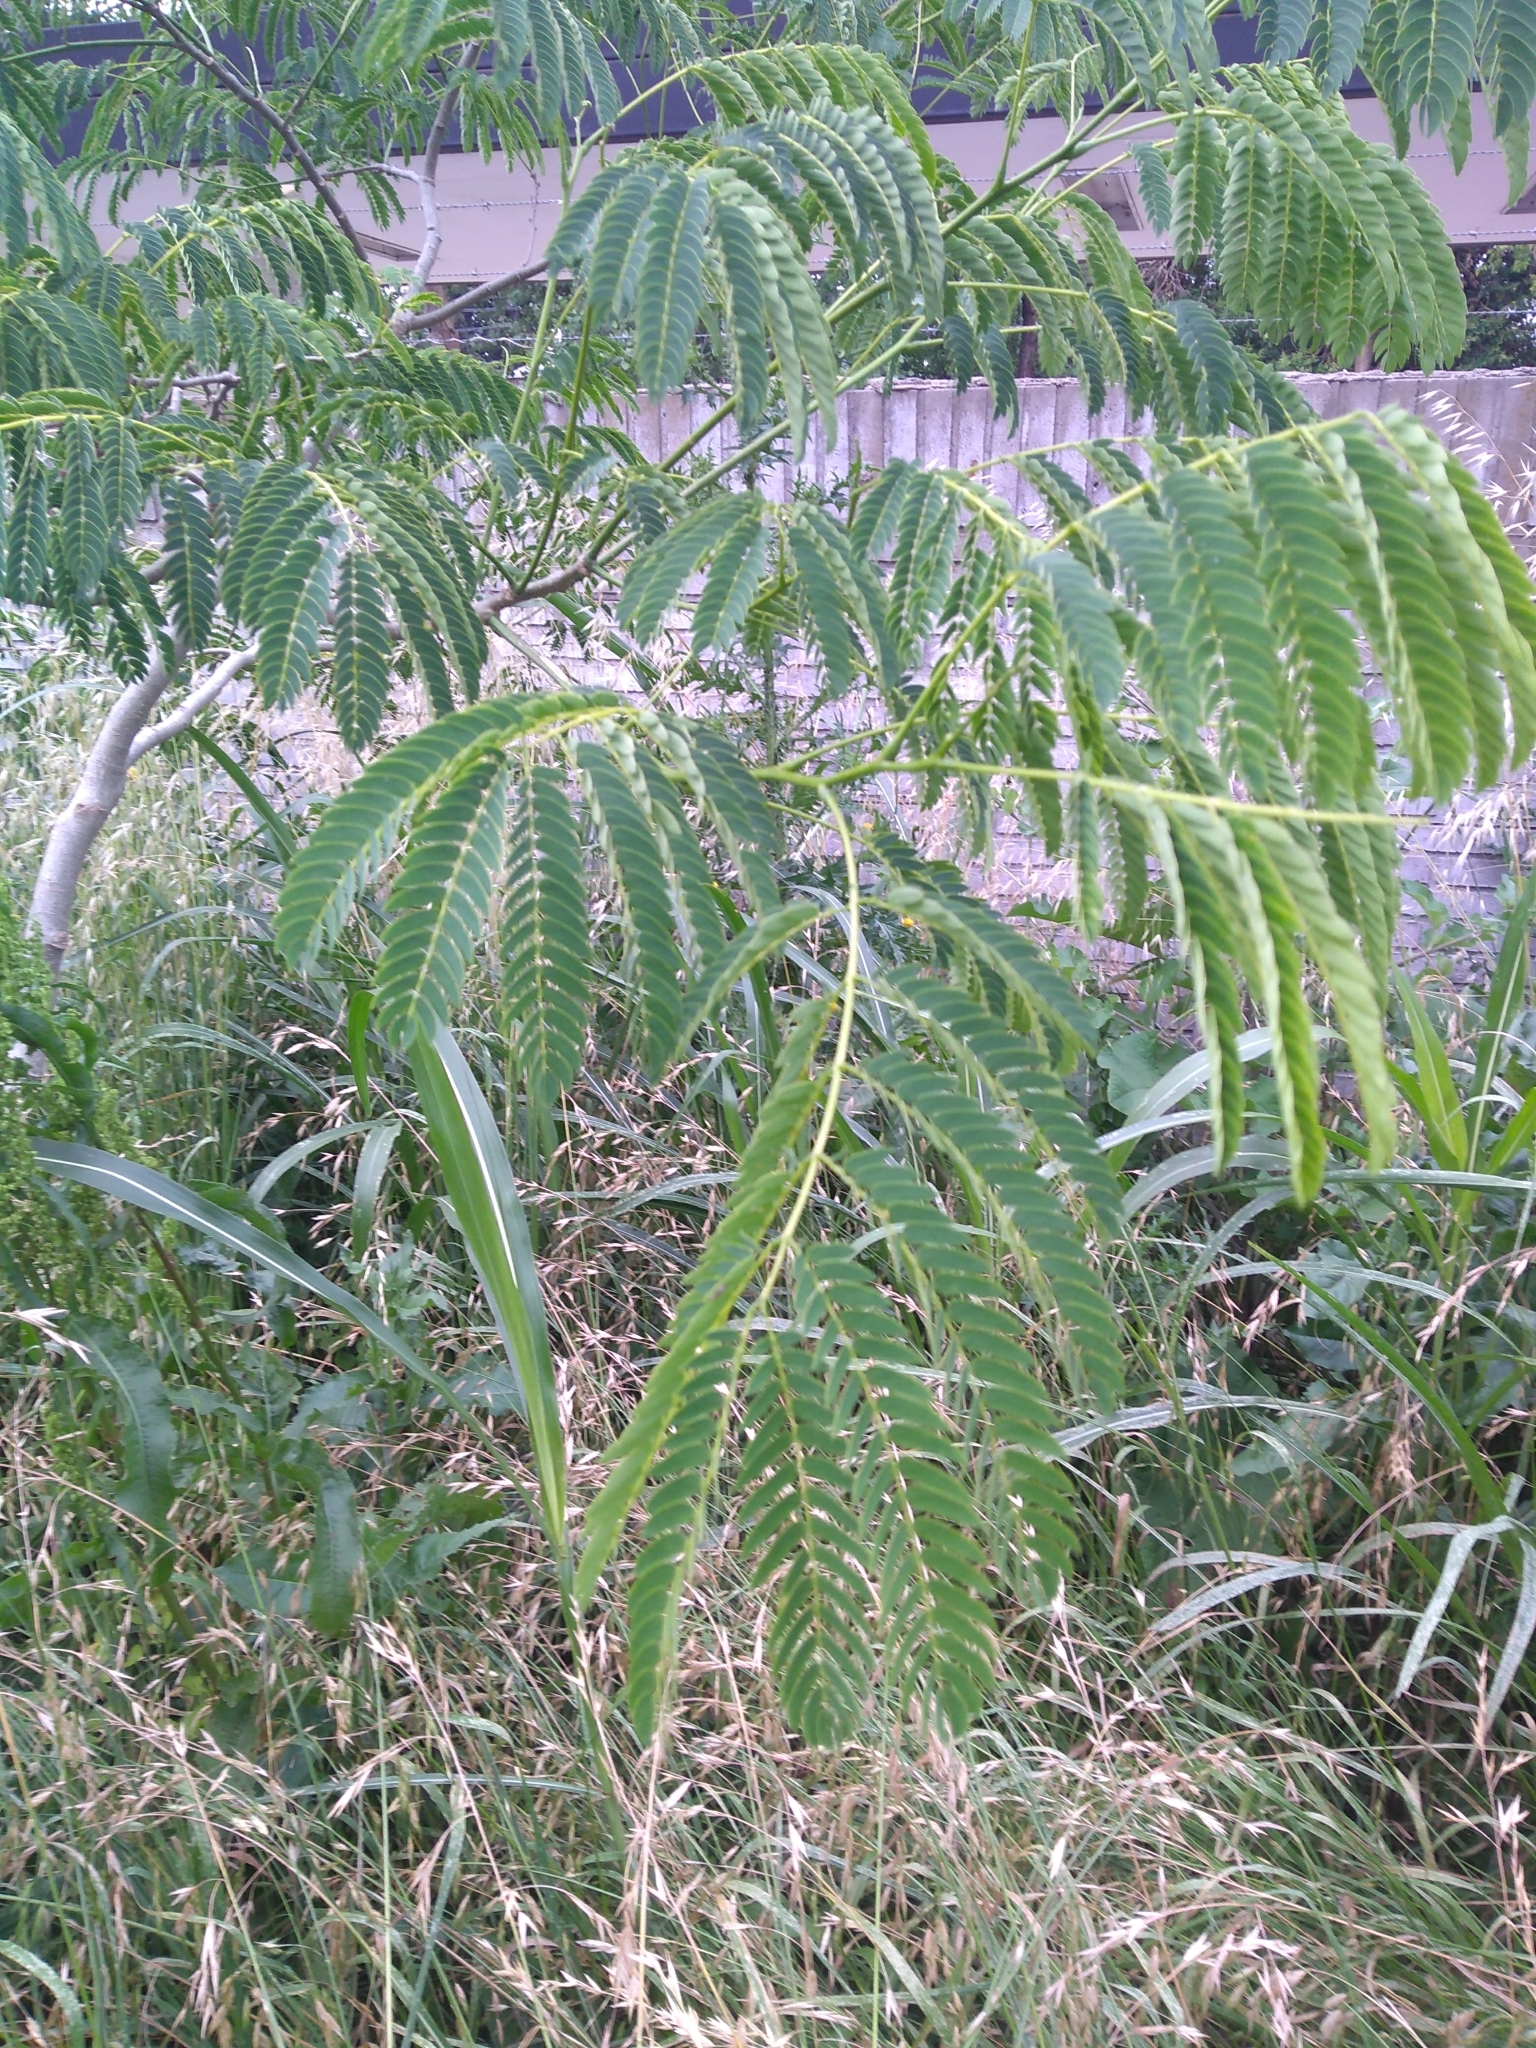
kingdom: Plantae
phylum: Tracheophyta
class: Magnoliopsida
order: Fabales
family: Fabaceae
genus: Enterolobium
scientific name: Enterolobium contortisiliquum
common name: Pacara earpod tree
